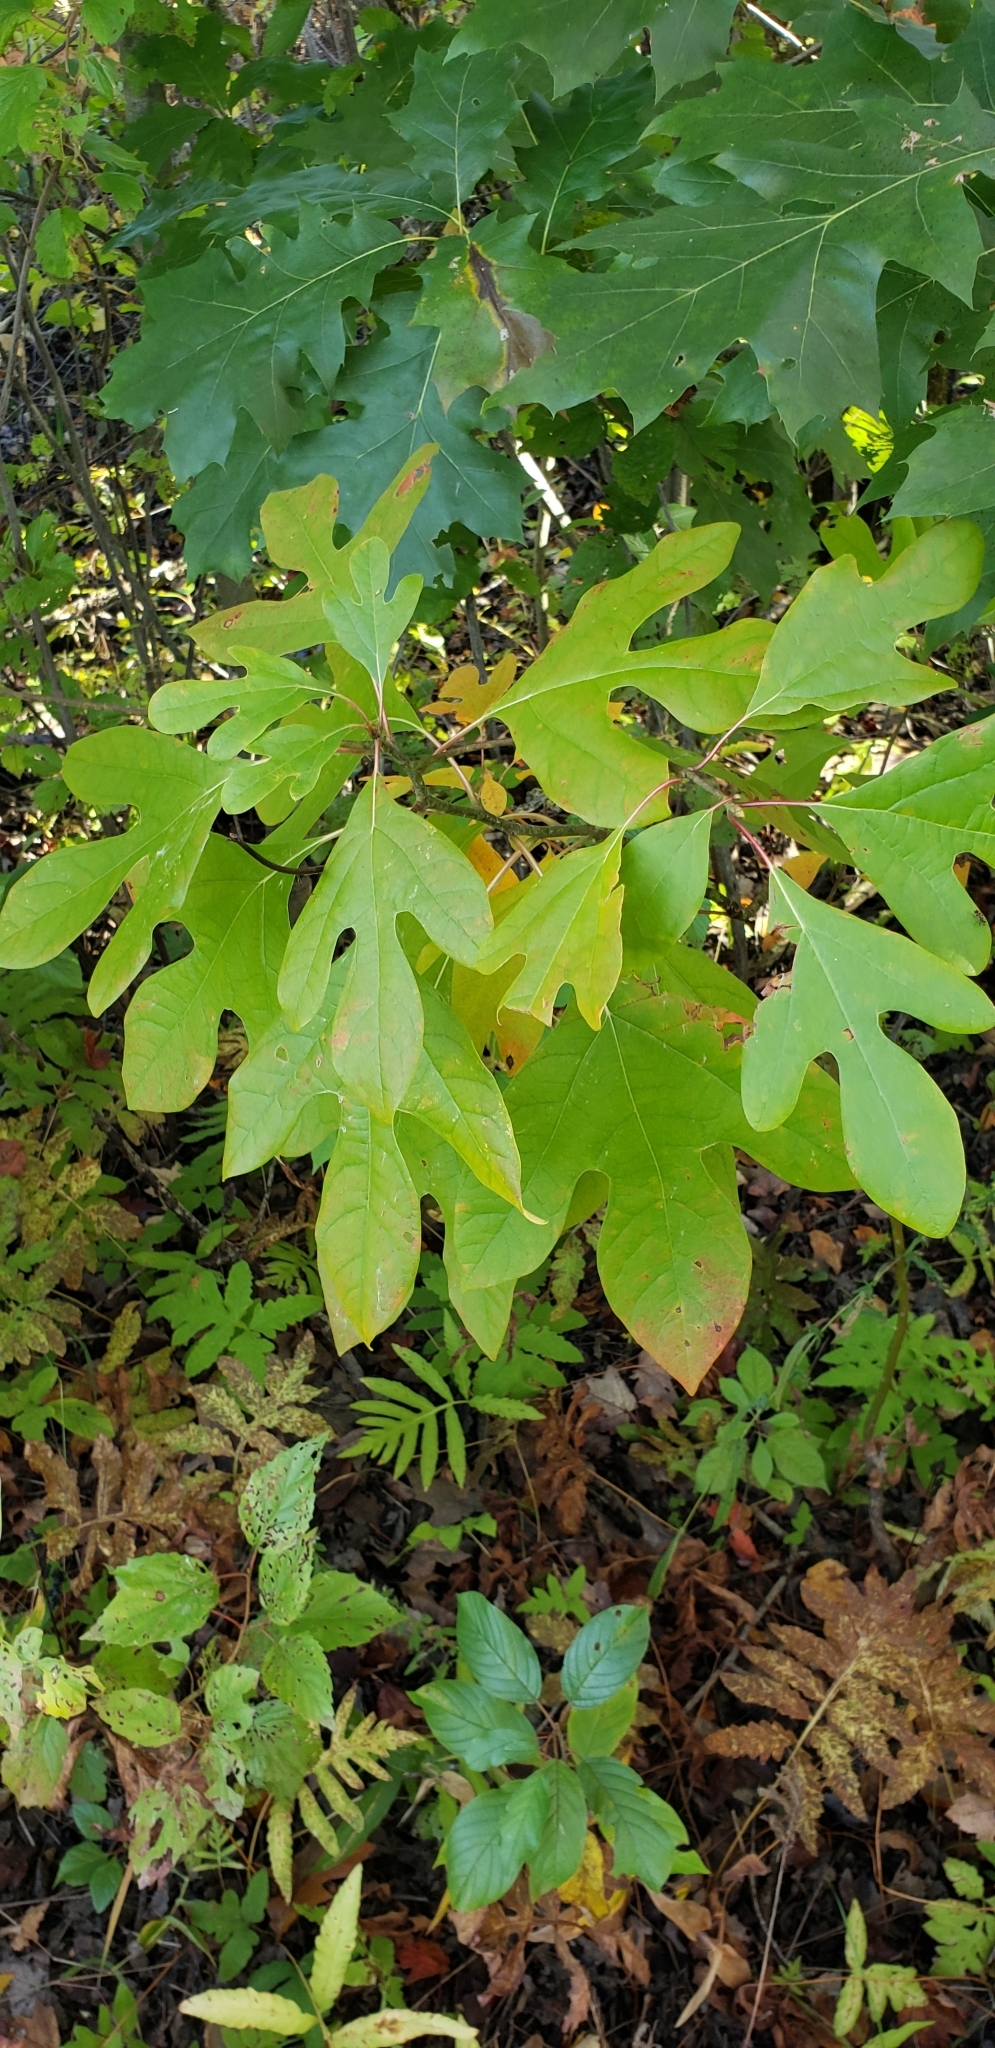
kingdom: Plantae
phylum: Tracheophyta
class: Magnoliopsida
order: Laurales
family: Lauraceae
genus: Sassafras
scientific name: Sassafras albidum
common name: Sassafras
